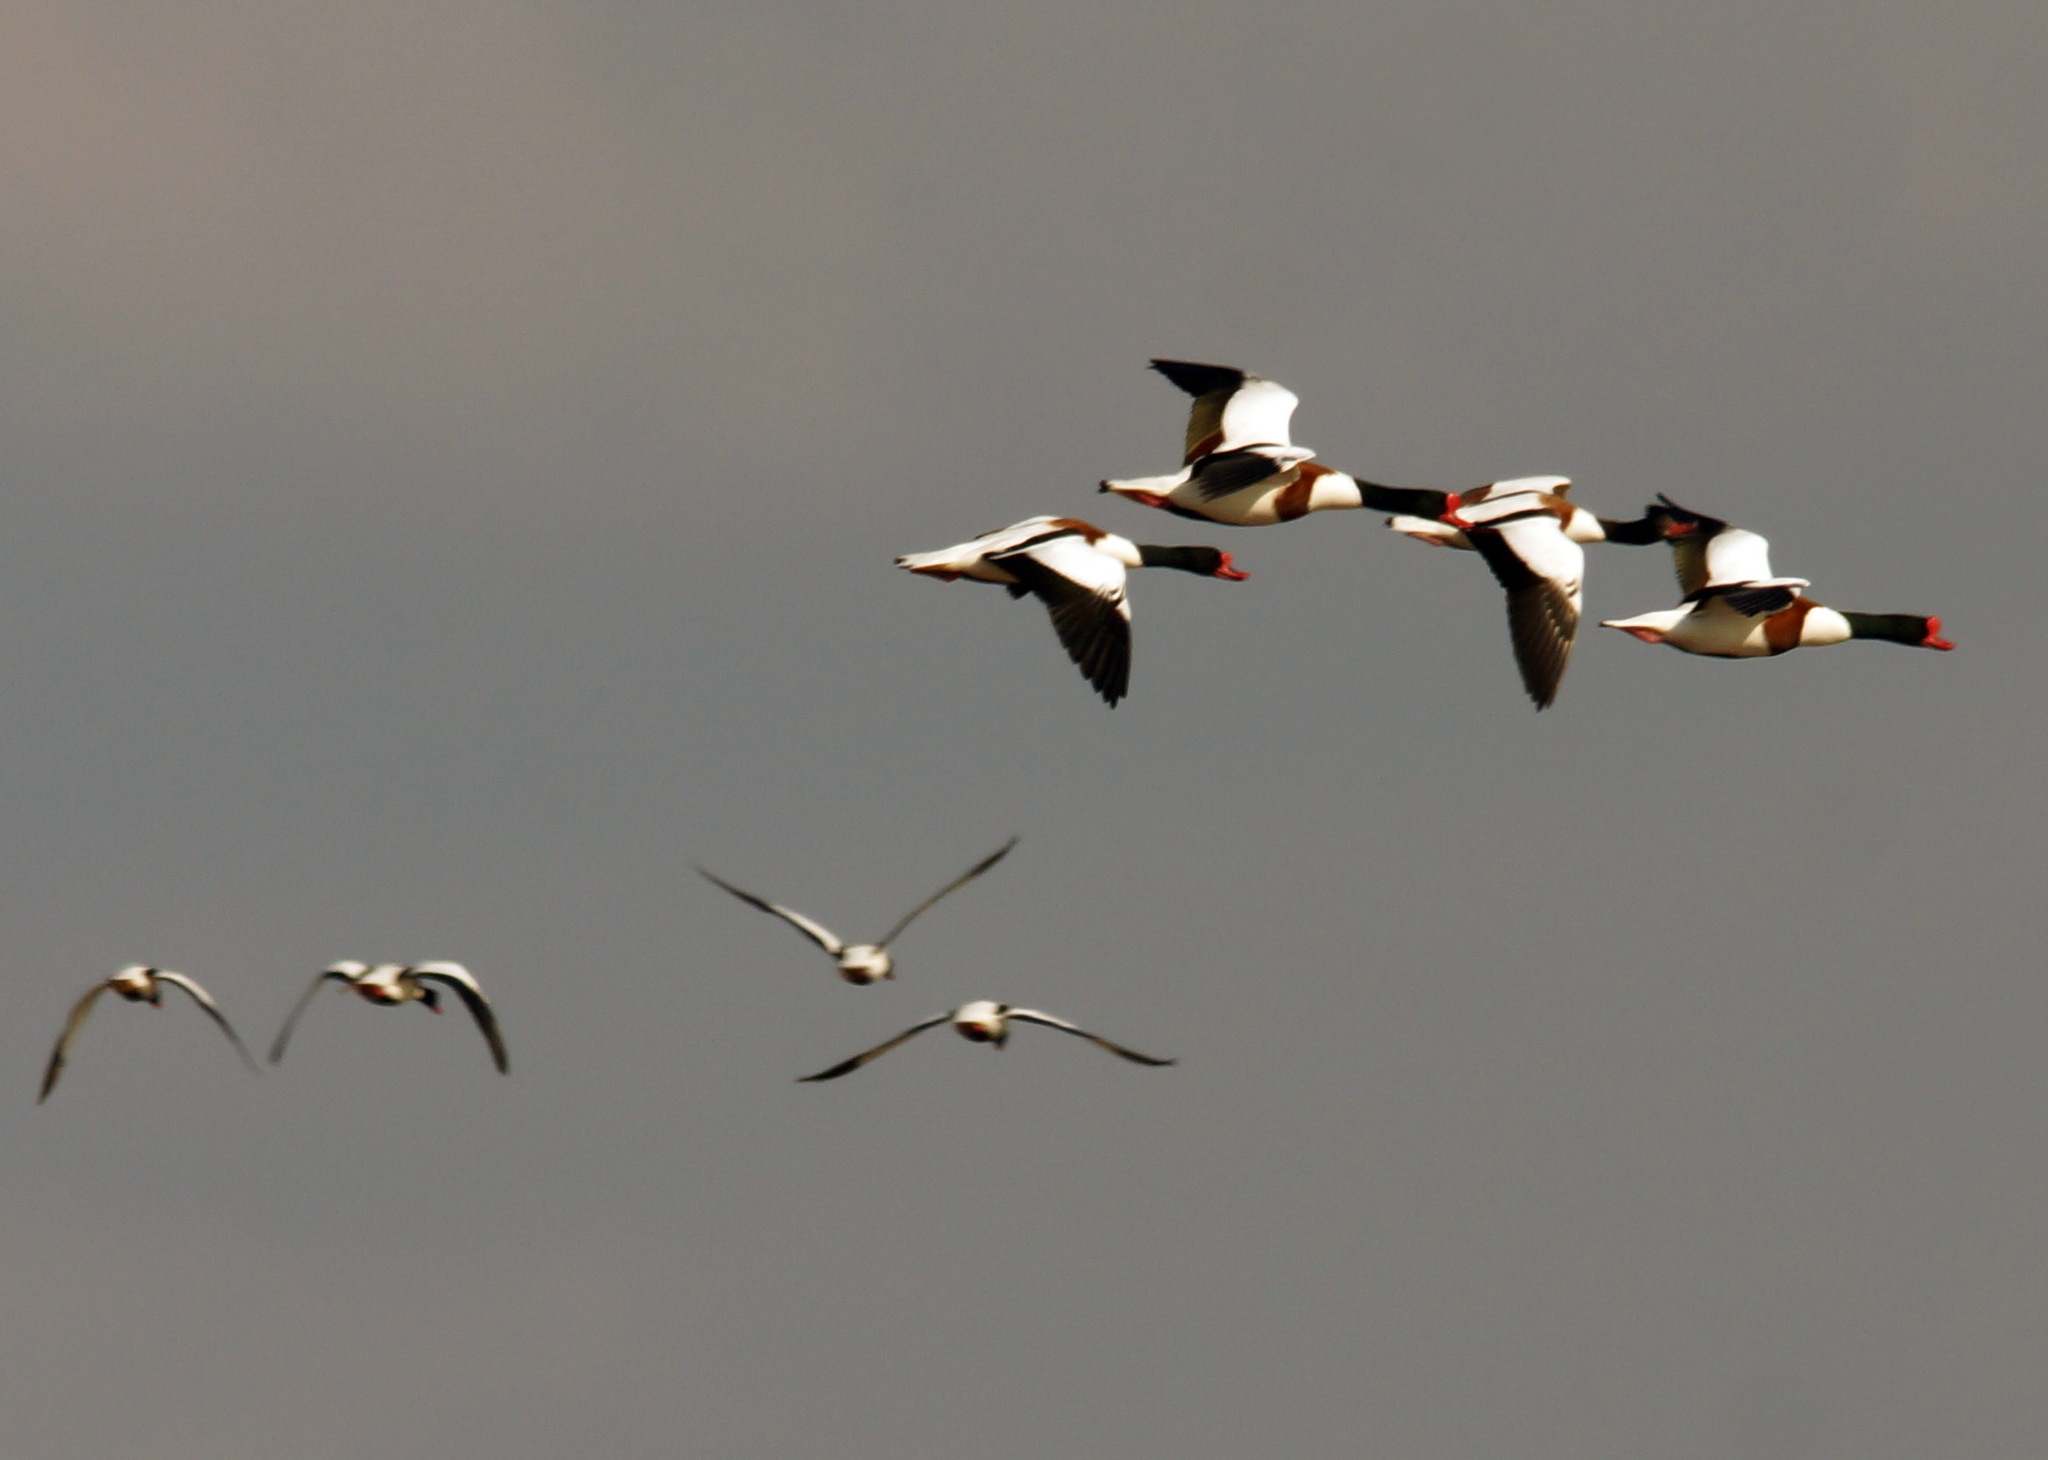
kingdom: Animalia
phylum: Chordata
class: Aves
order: Anseriformes
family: Anatidae
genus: Tadorna
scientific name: Tadorna tadorna
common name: Common shelduck
